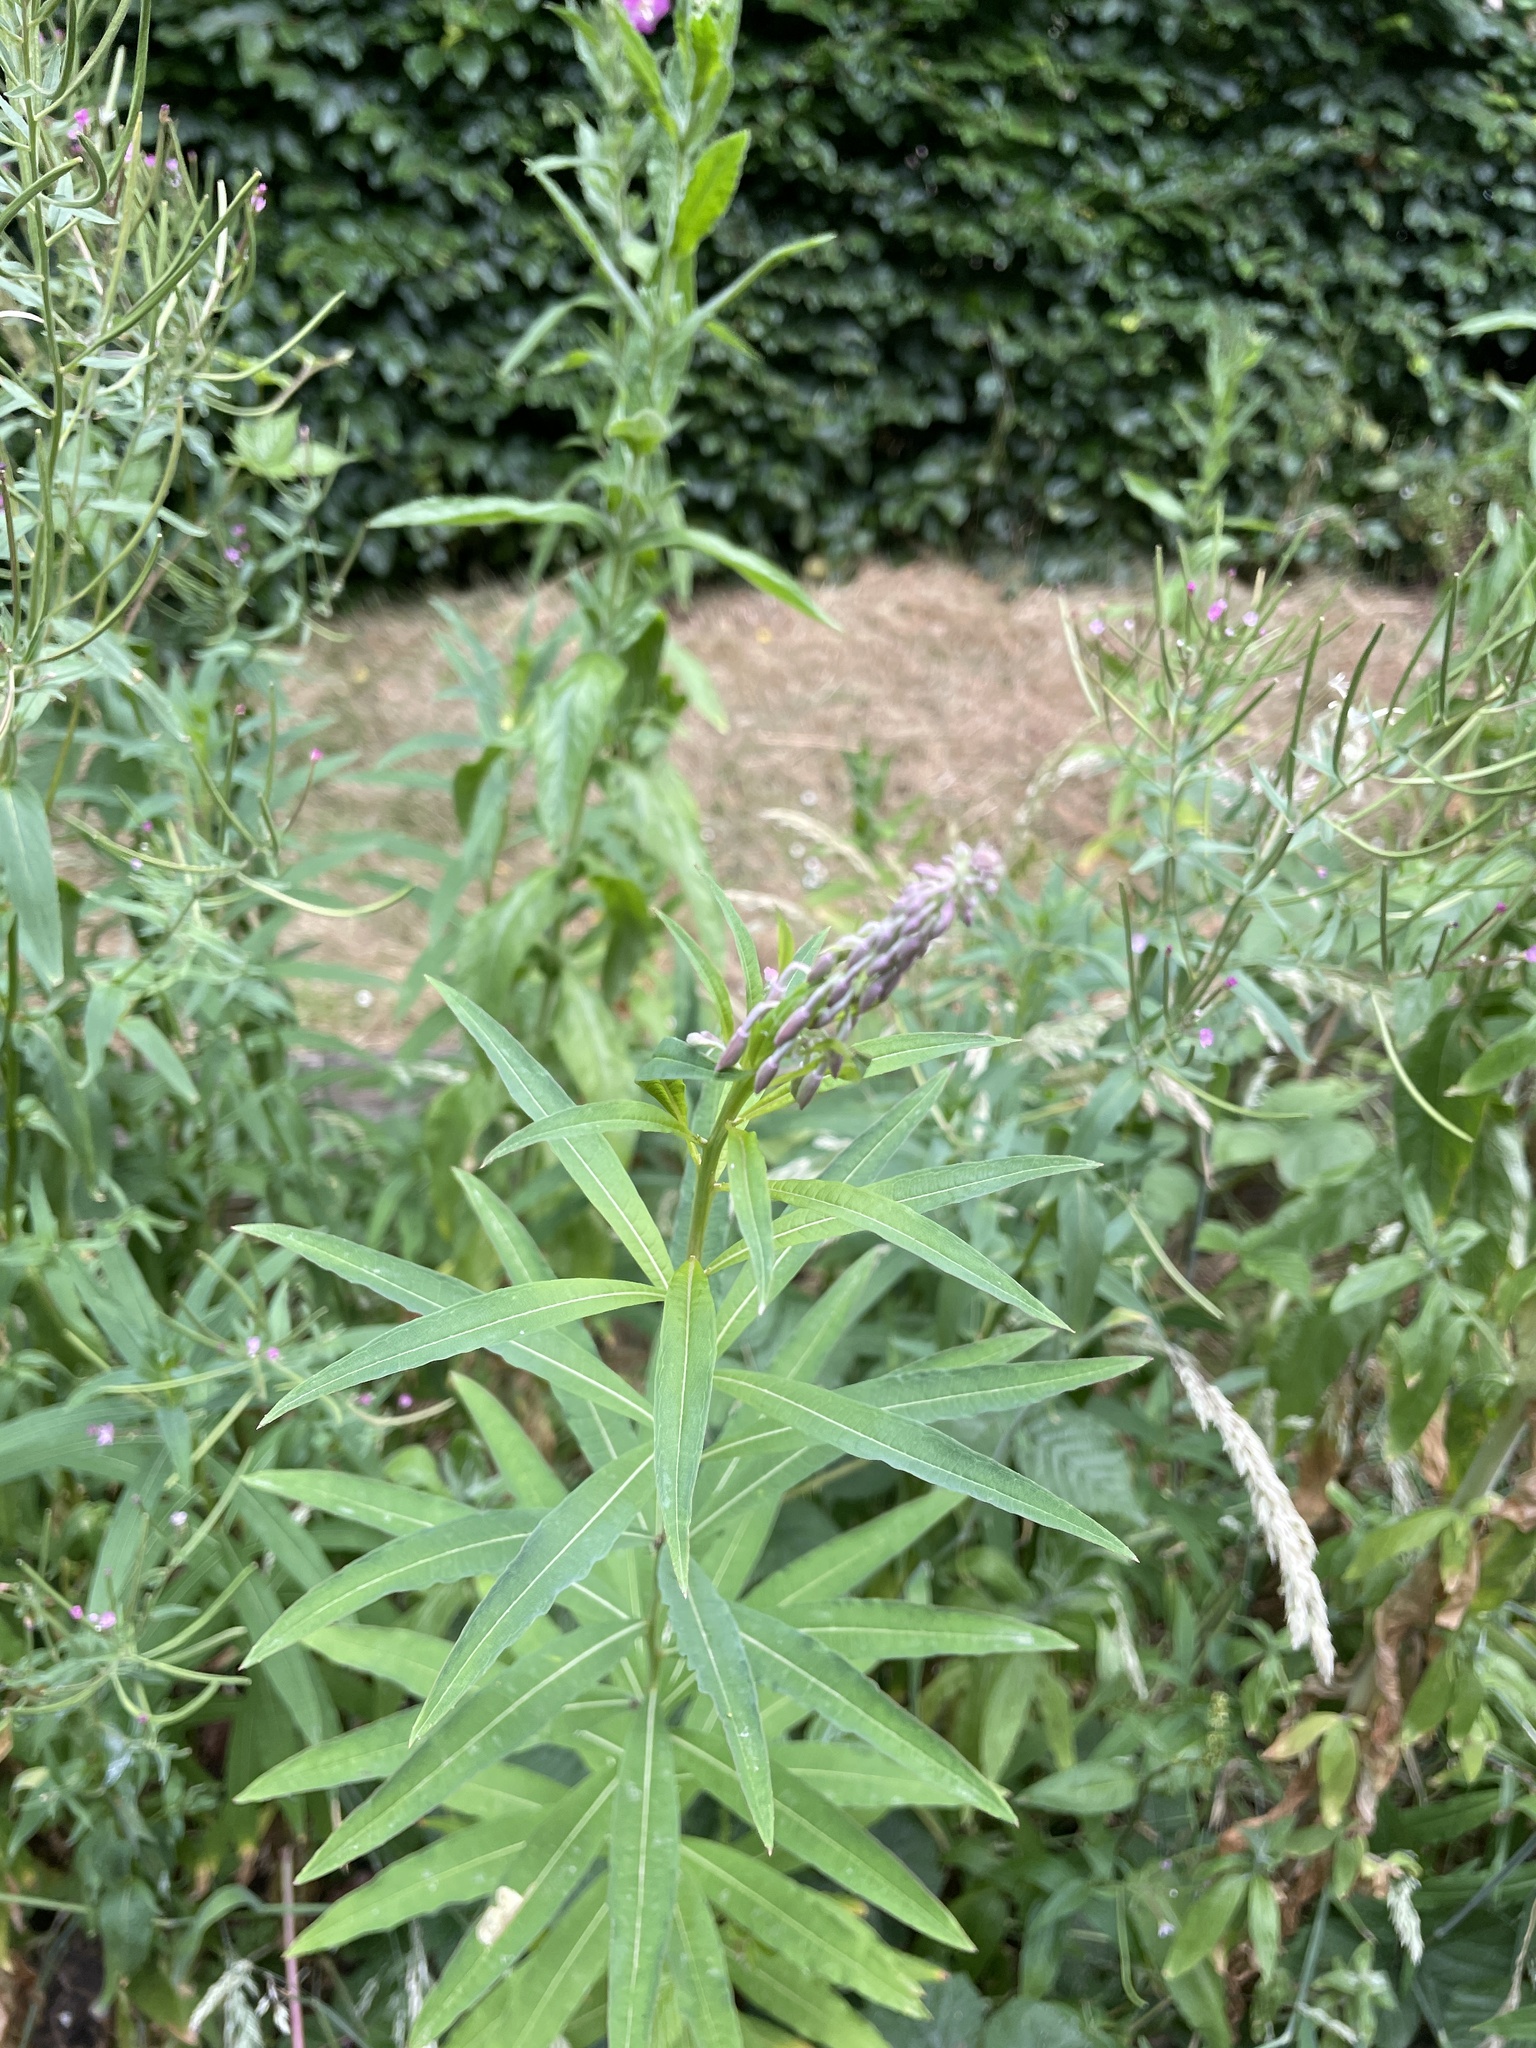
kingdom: Plantae
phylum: Tracheophyta
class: Magnoliopsida
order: Myrtales
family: Onagraceae
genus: Chamaenerion
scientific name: Chamaenerion angustifolium
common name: Fireweed
